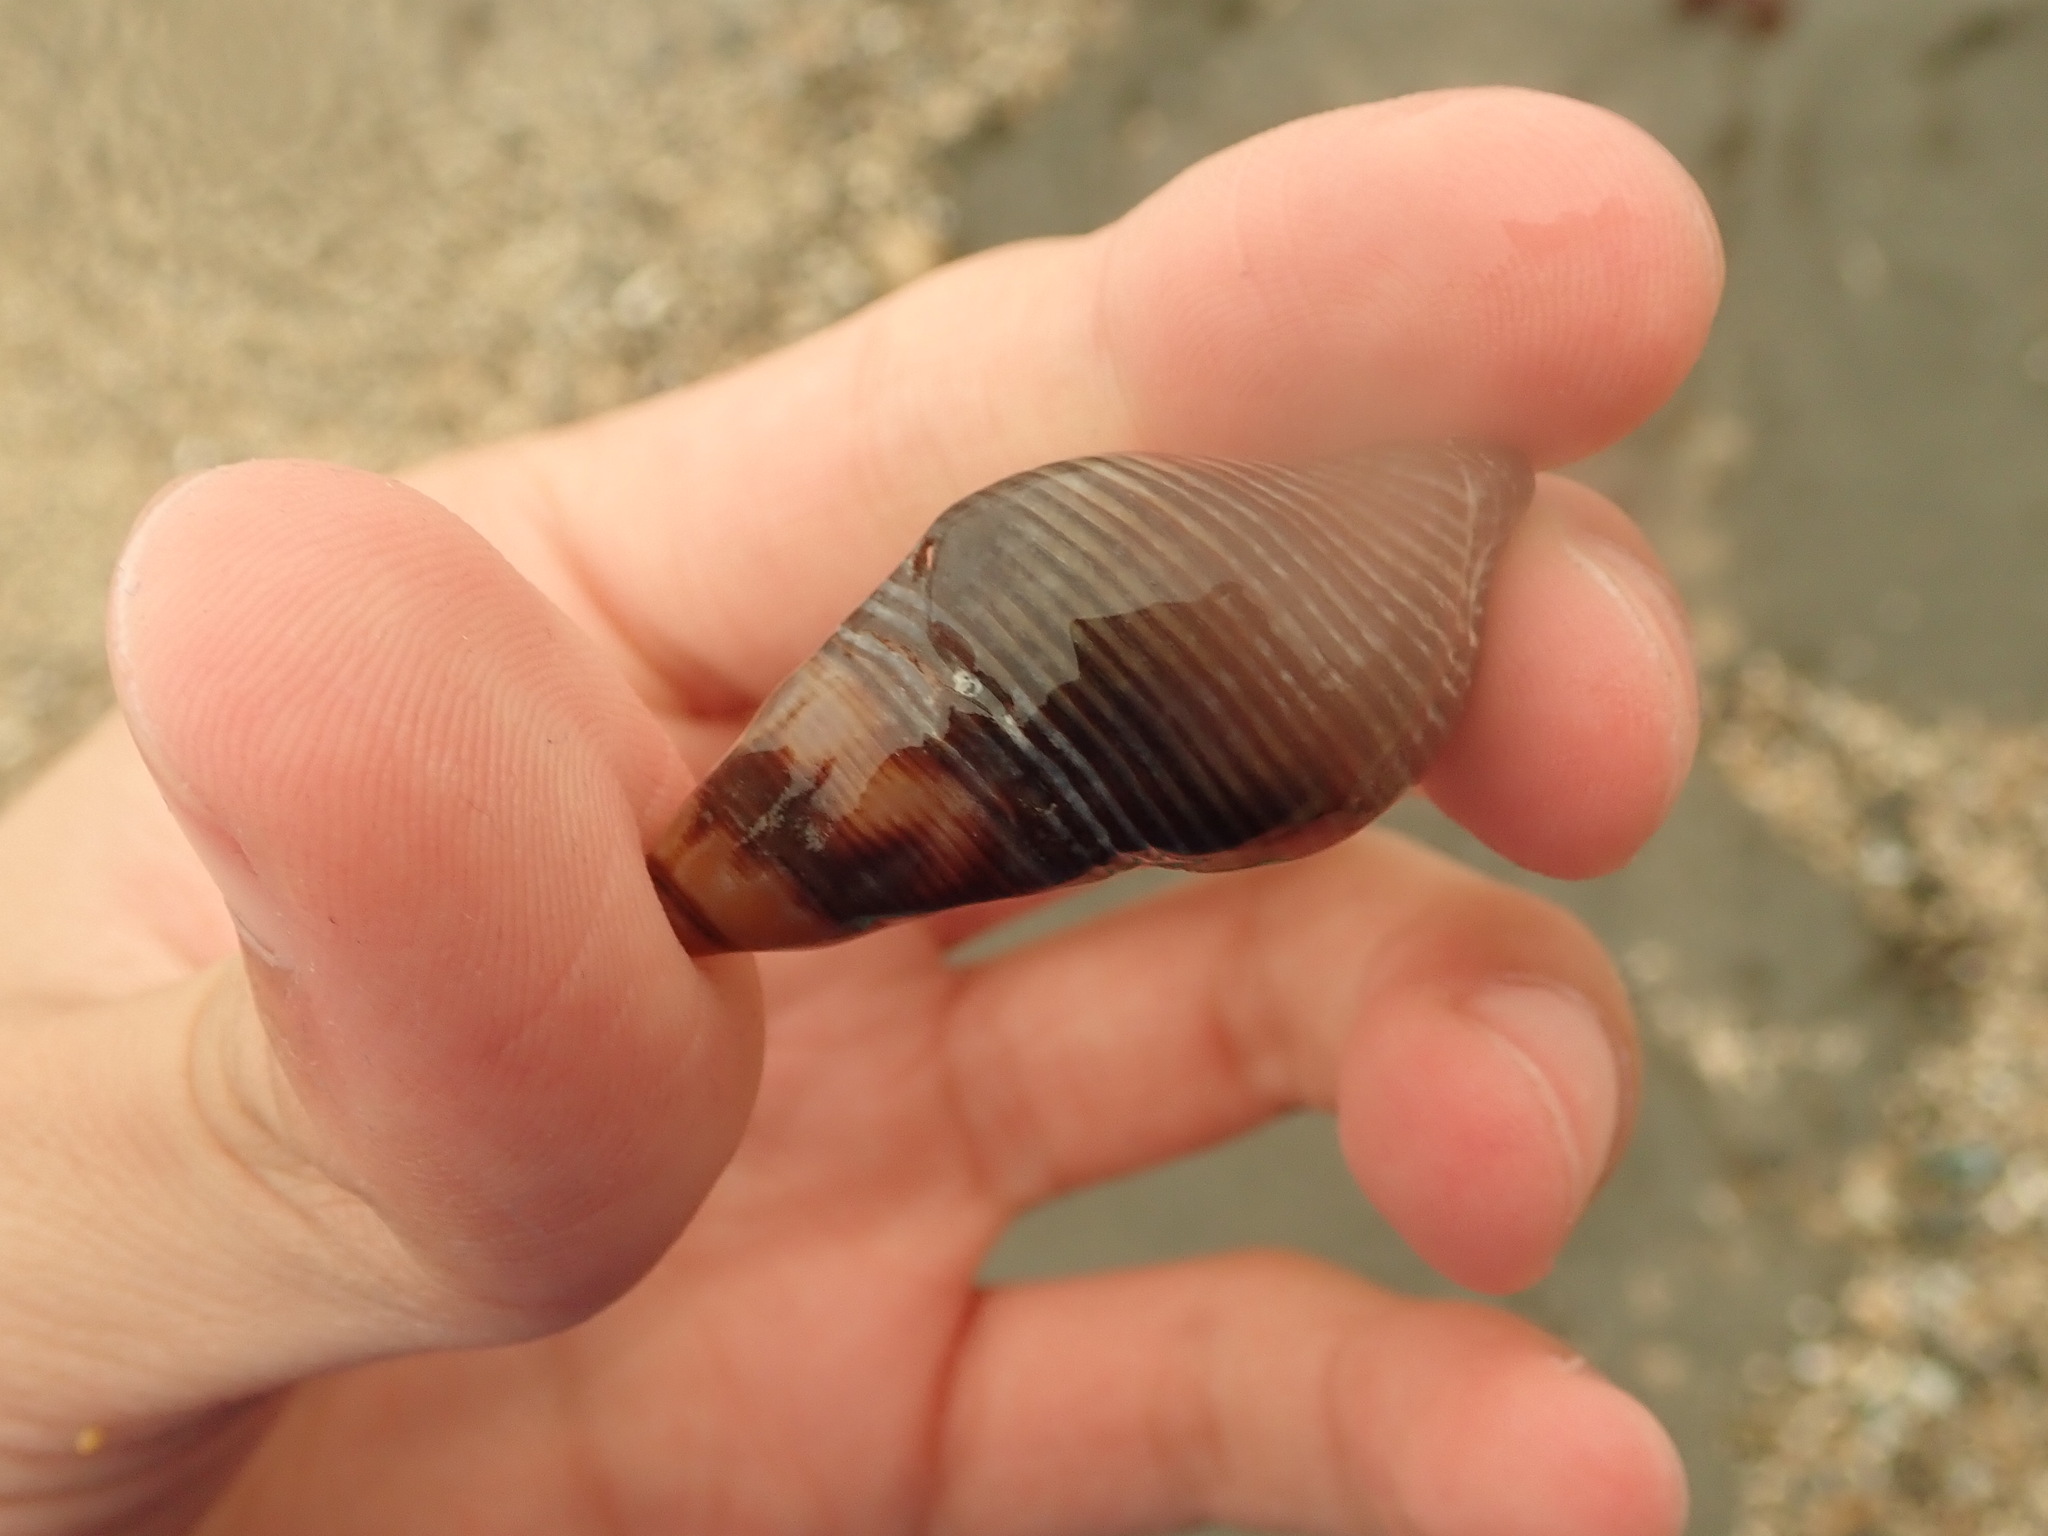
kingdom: Animalia
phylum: Mollusca
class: Gastropoda
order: Neogastropoda
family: Tudiclidae
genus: Lirabuccinum
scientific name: Lirabuccinum dirum
